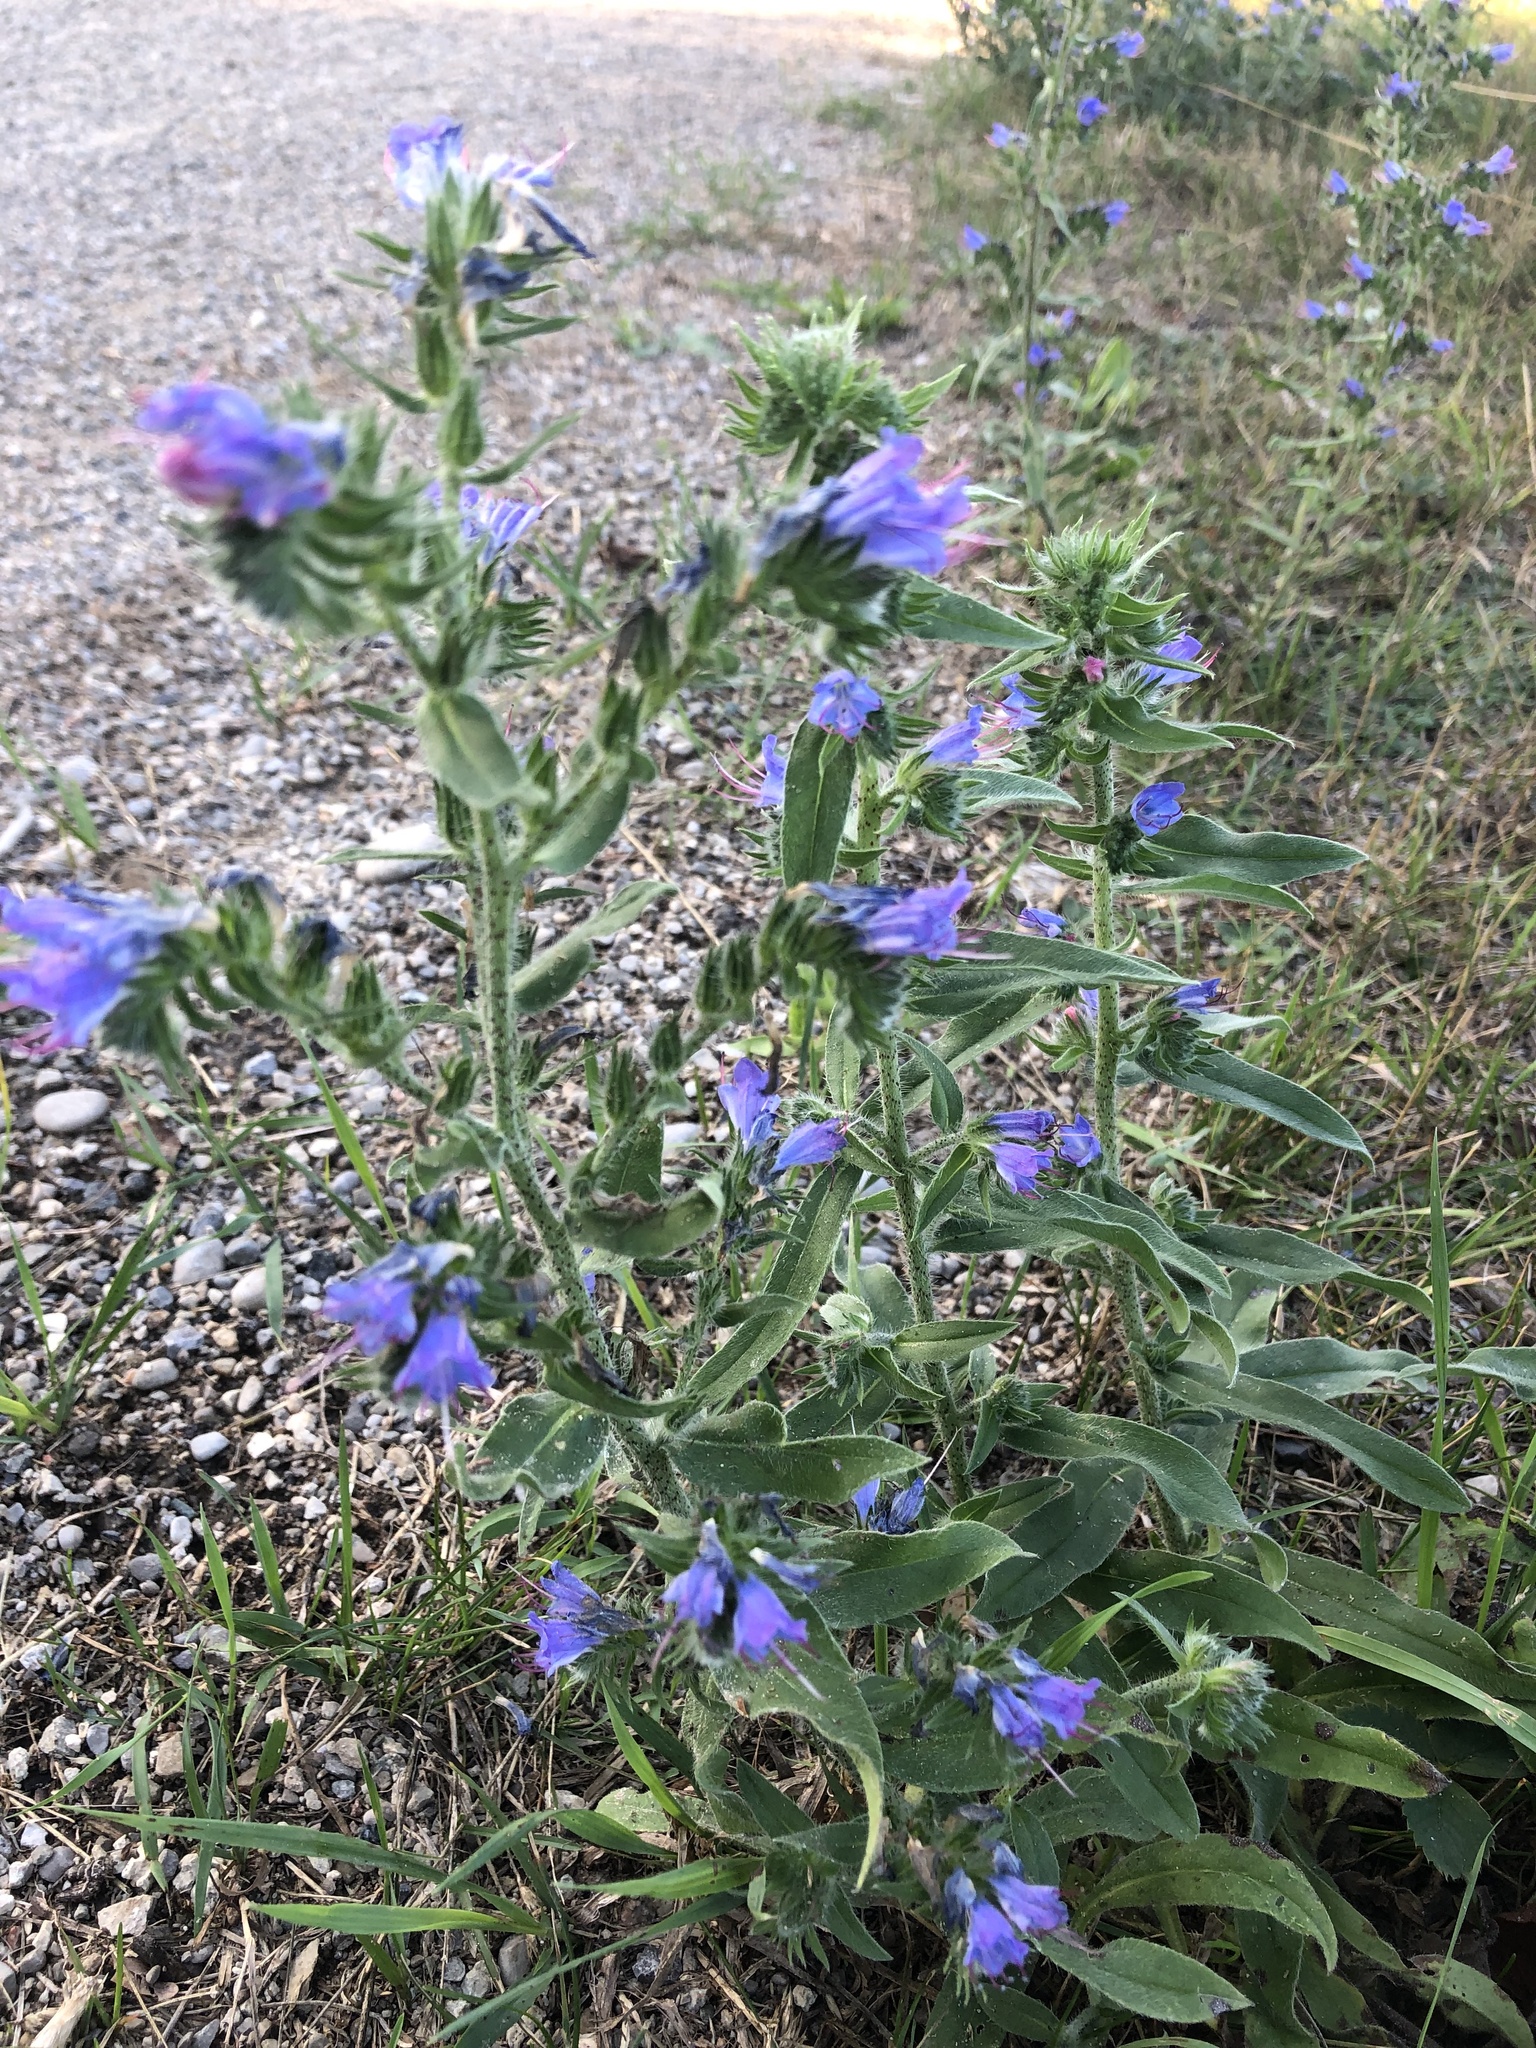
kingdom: Plantae
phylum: Tracheophyta
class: Magnoliopsida
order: Boraginales
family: Boraginaceae
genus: Echium
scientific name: Echium vulgare
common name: Common viper's bugloss
